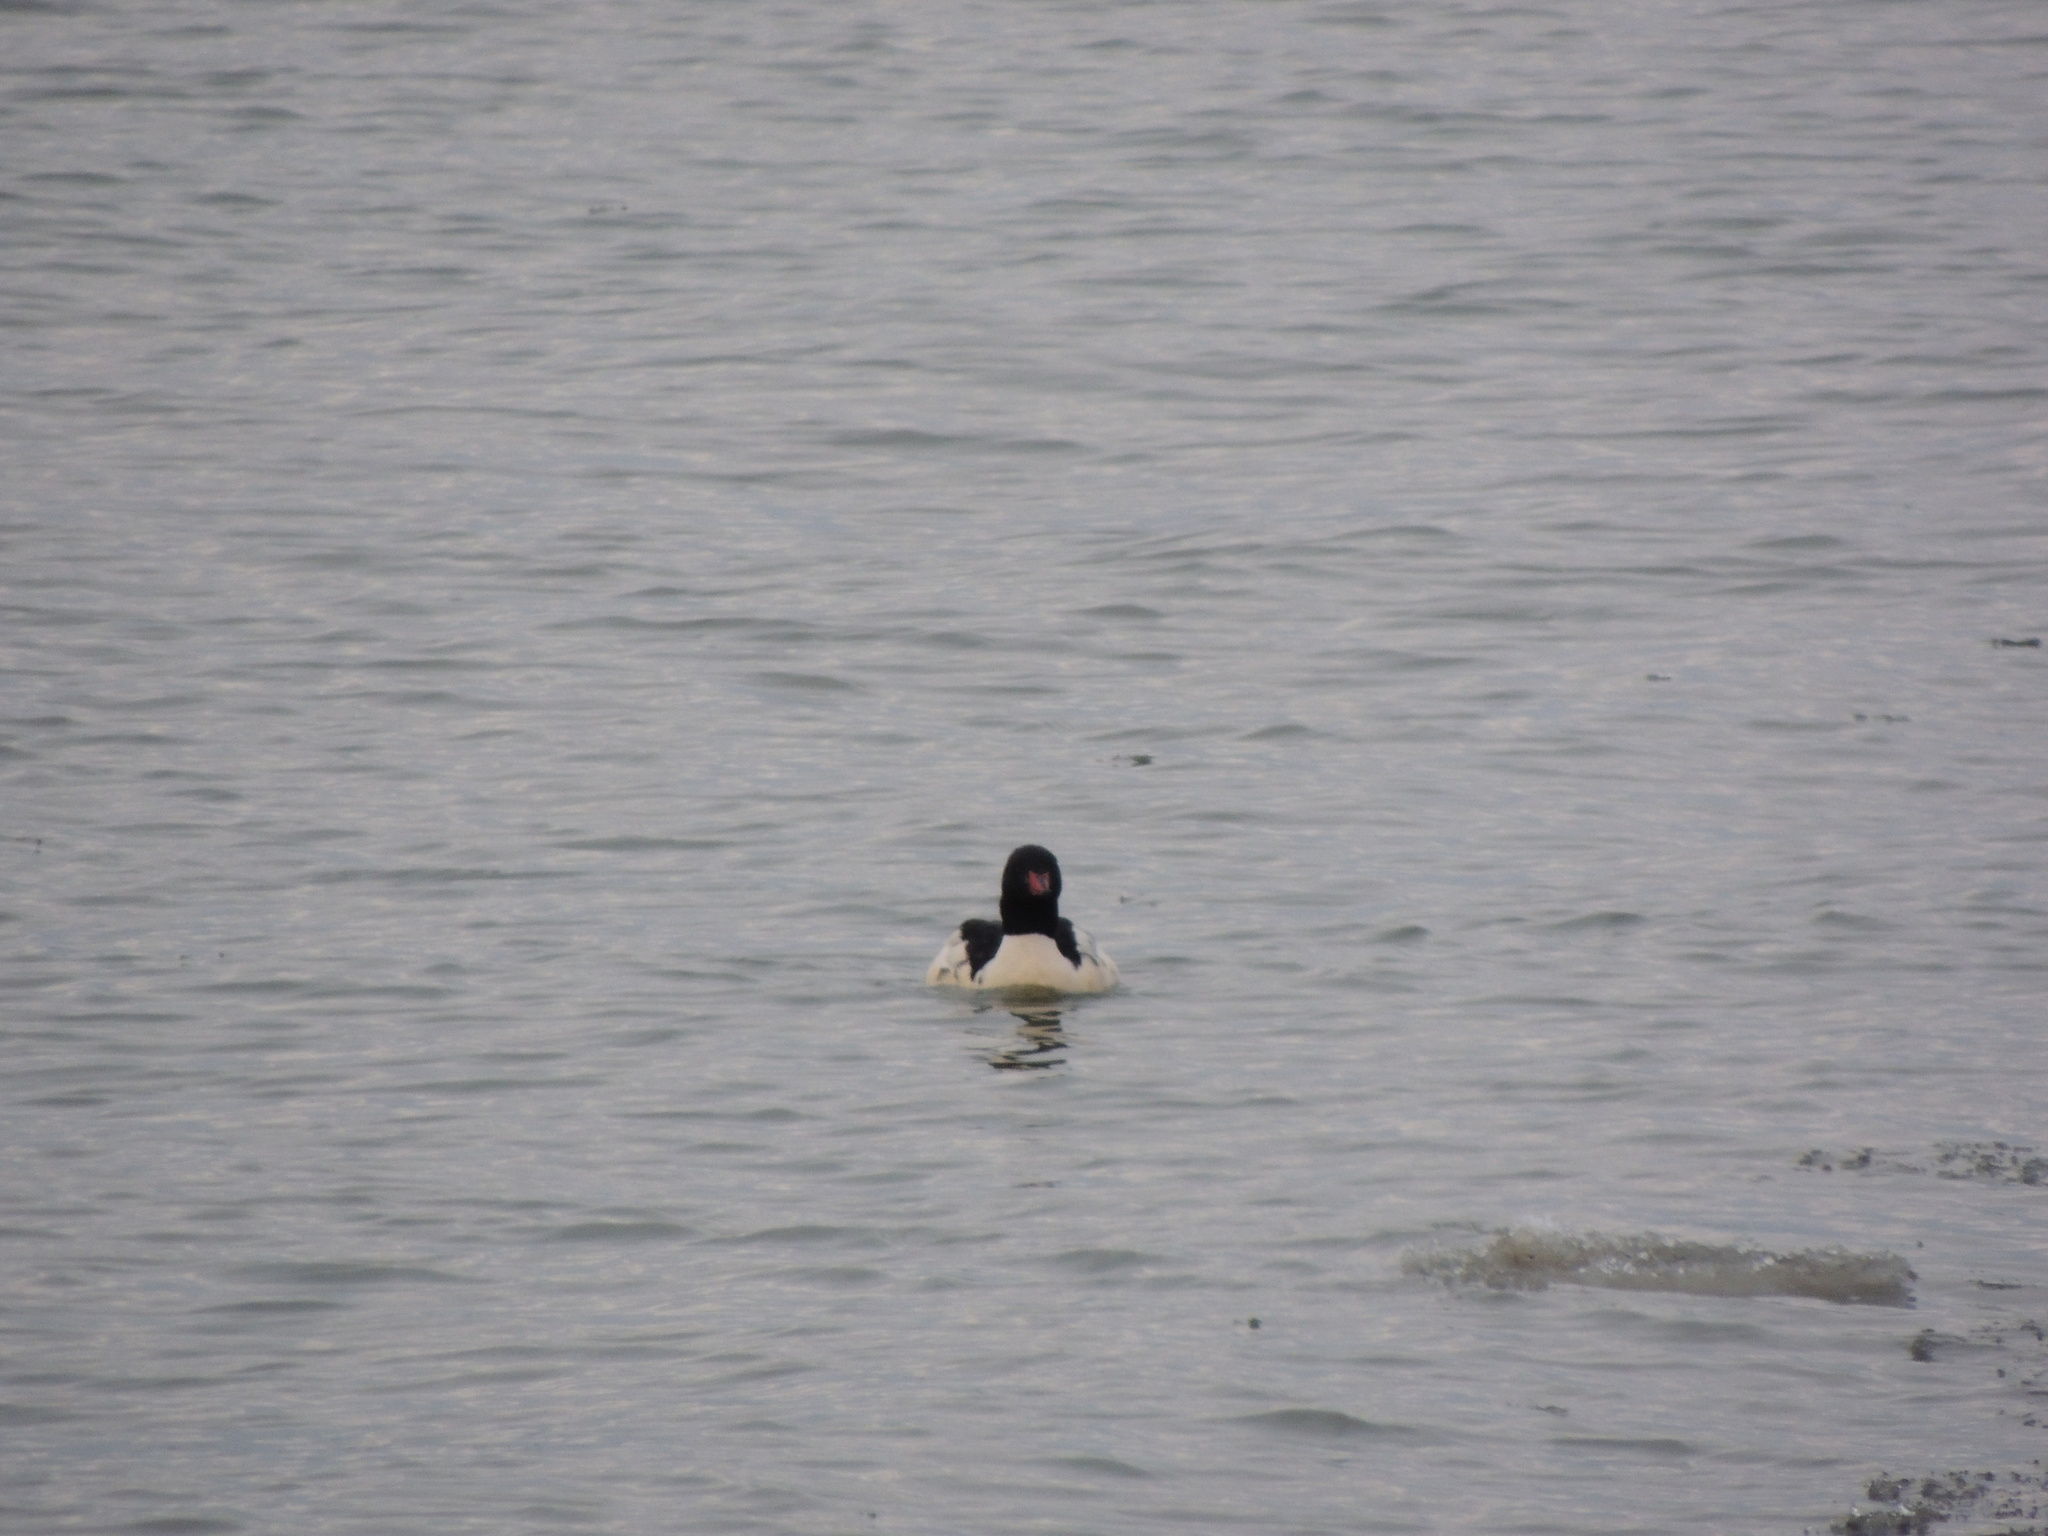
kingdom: Animalia
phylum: Chordata
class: Aves
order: Anseriformes
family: Anatidae
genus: Mergus
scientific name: Mergus merganser
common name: Common merganser
